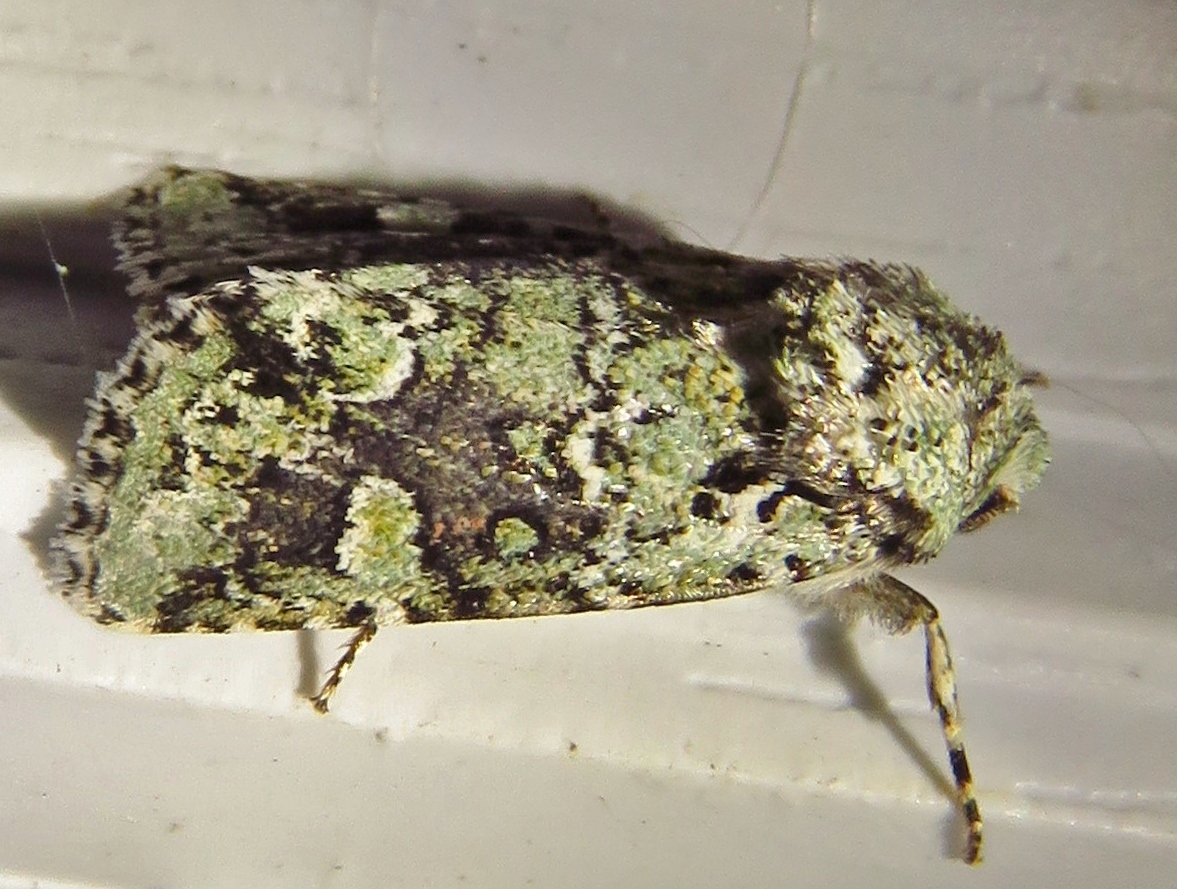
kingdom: Animalia
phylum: Arthropoda
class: Insecta
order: Lepidoptera
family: Noctuidae
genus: Lacinipolia
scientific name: Lacinipolia laudabilis
